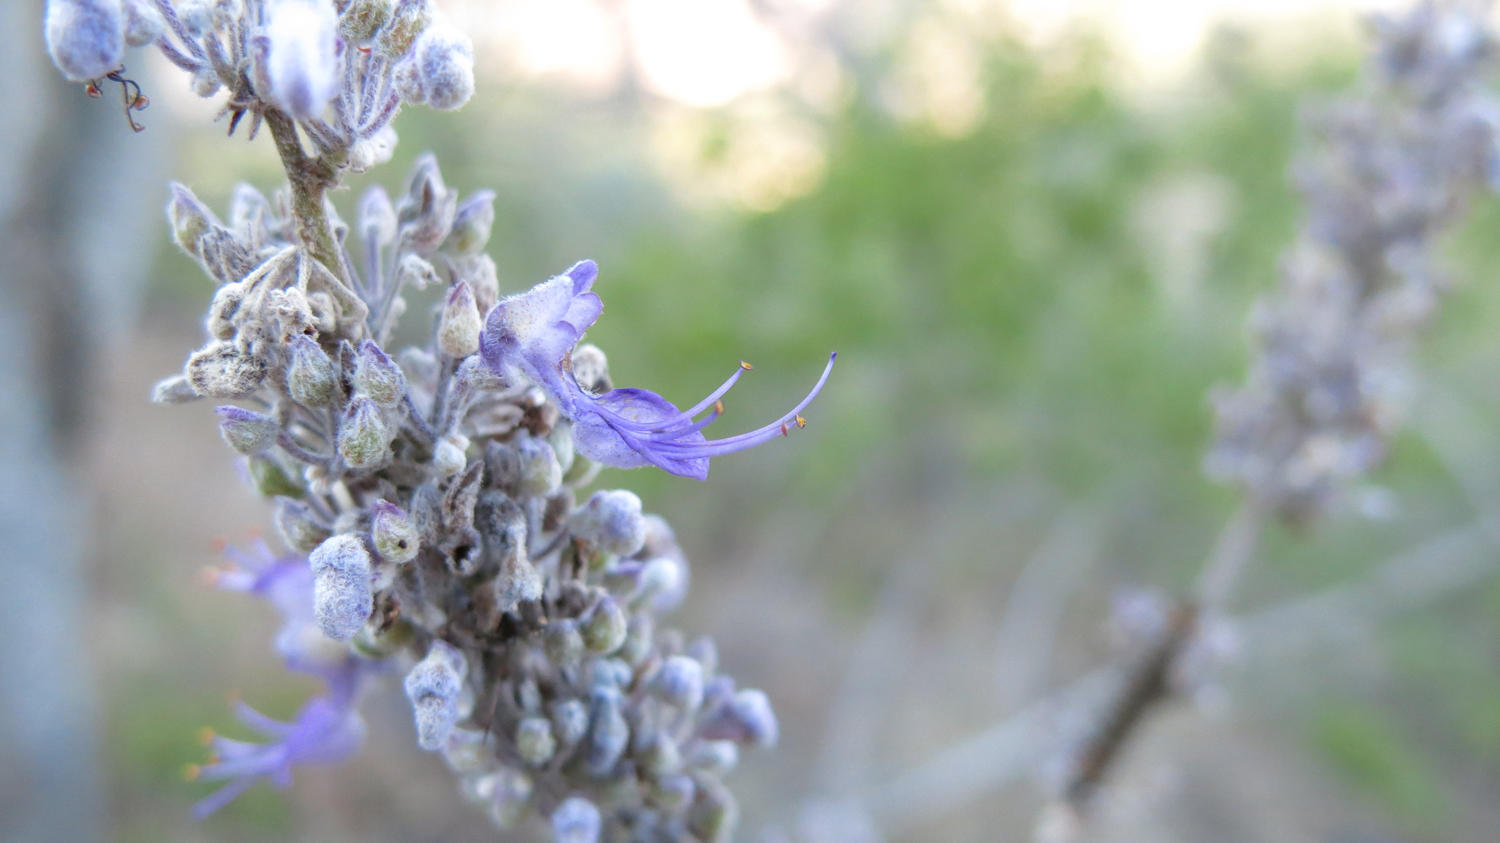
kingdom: Plantae
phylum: Tracheophyta
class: Magnoliopsida
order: Lamiales
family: Lamiaceae
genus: Coleus
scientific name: Coleus xerophilus
